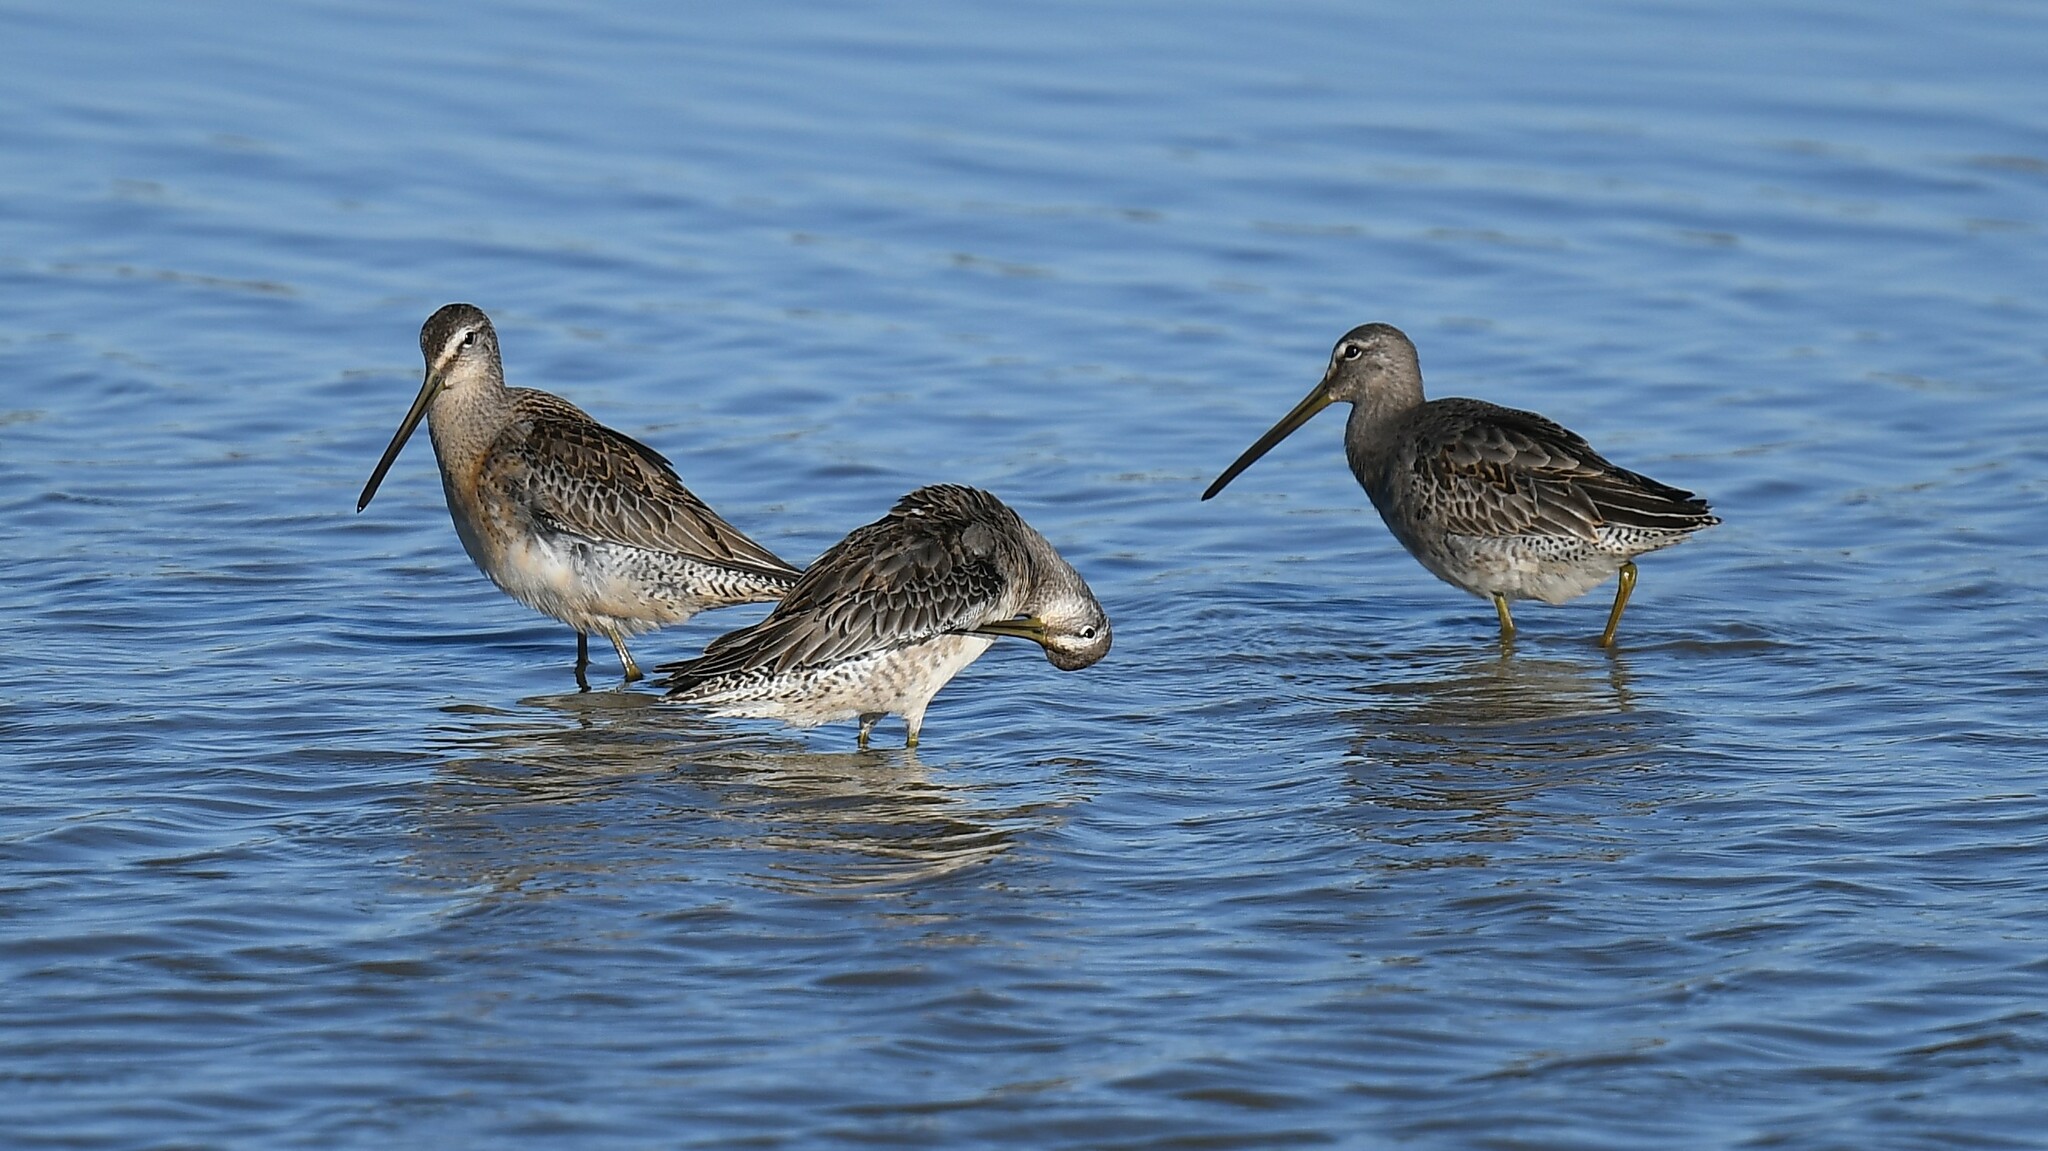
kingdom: Animalia
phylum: Chordata
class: Aves
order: Charadriiformes
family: Scolopacidae
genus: Limnodromus
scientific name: Limnodromus scolopaceus
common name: Long-billed dowitcher
